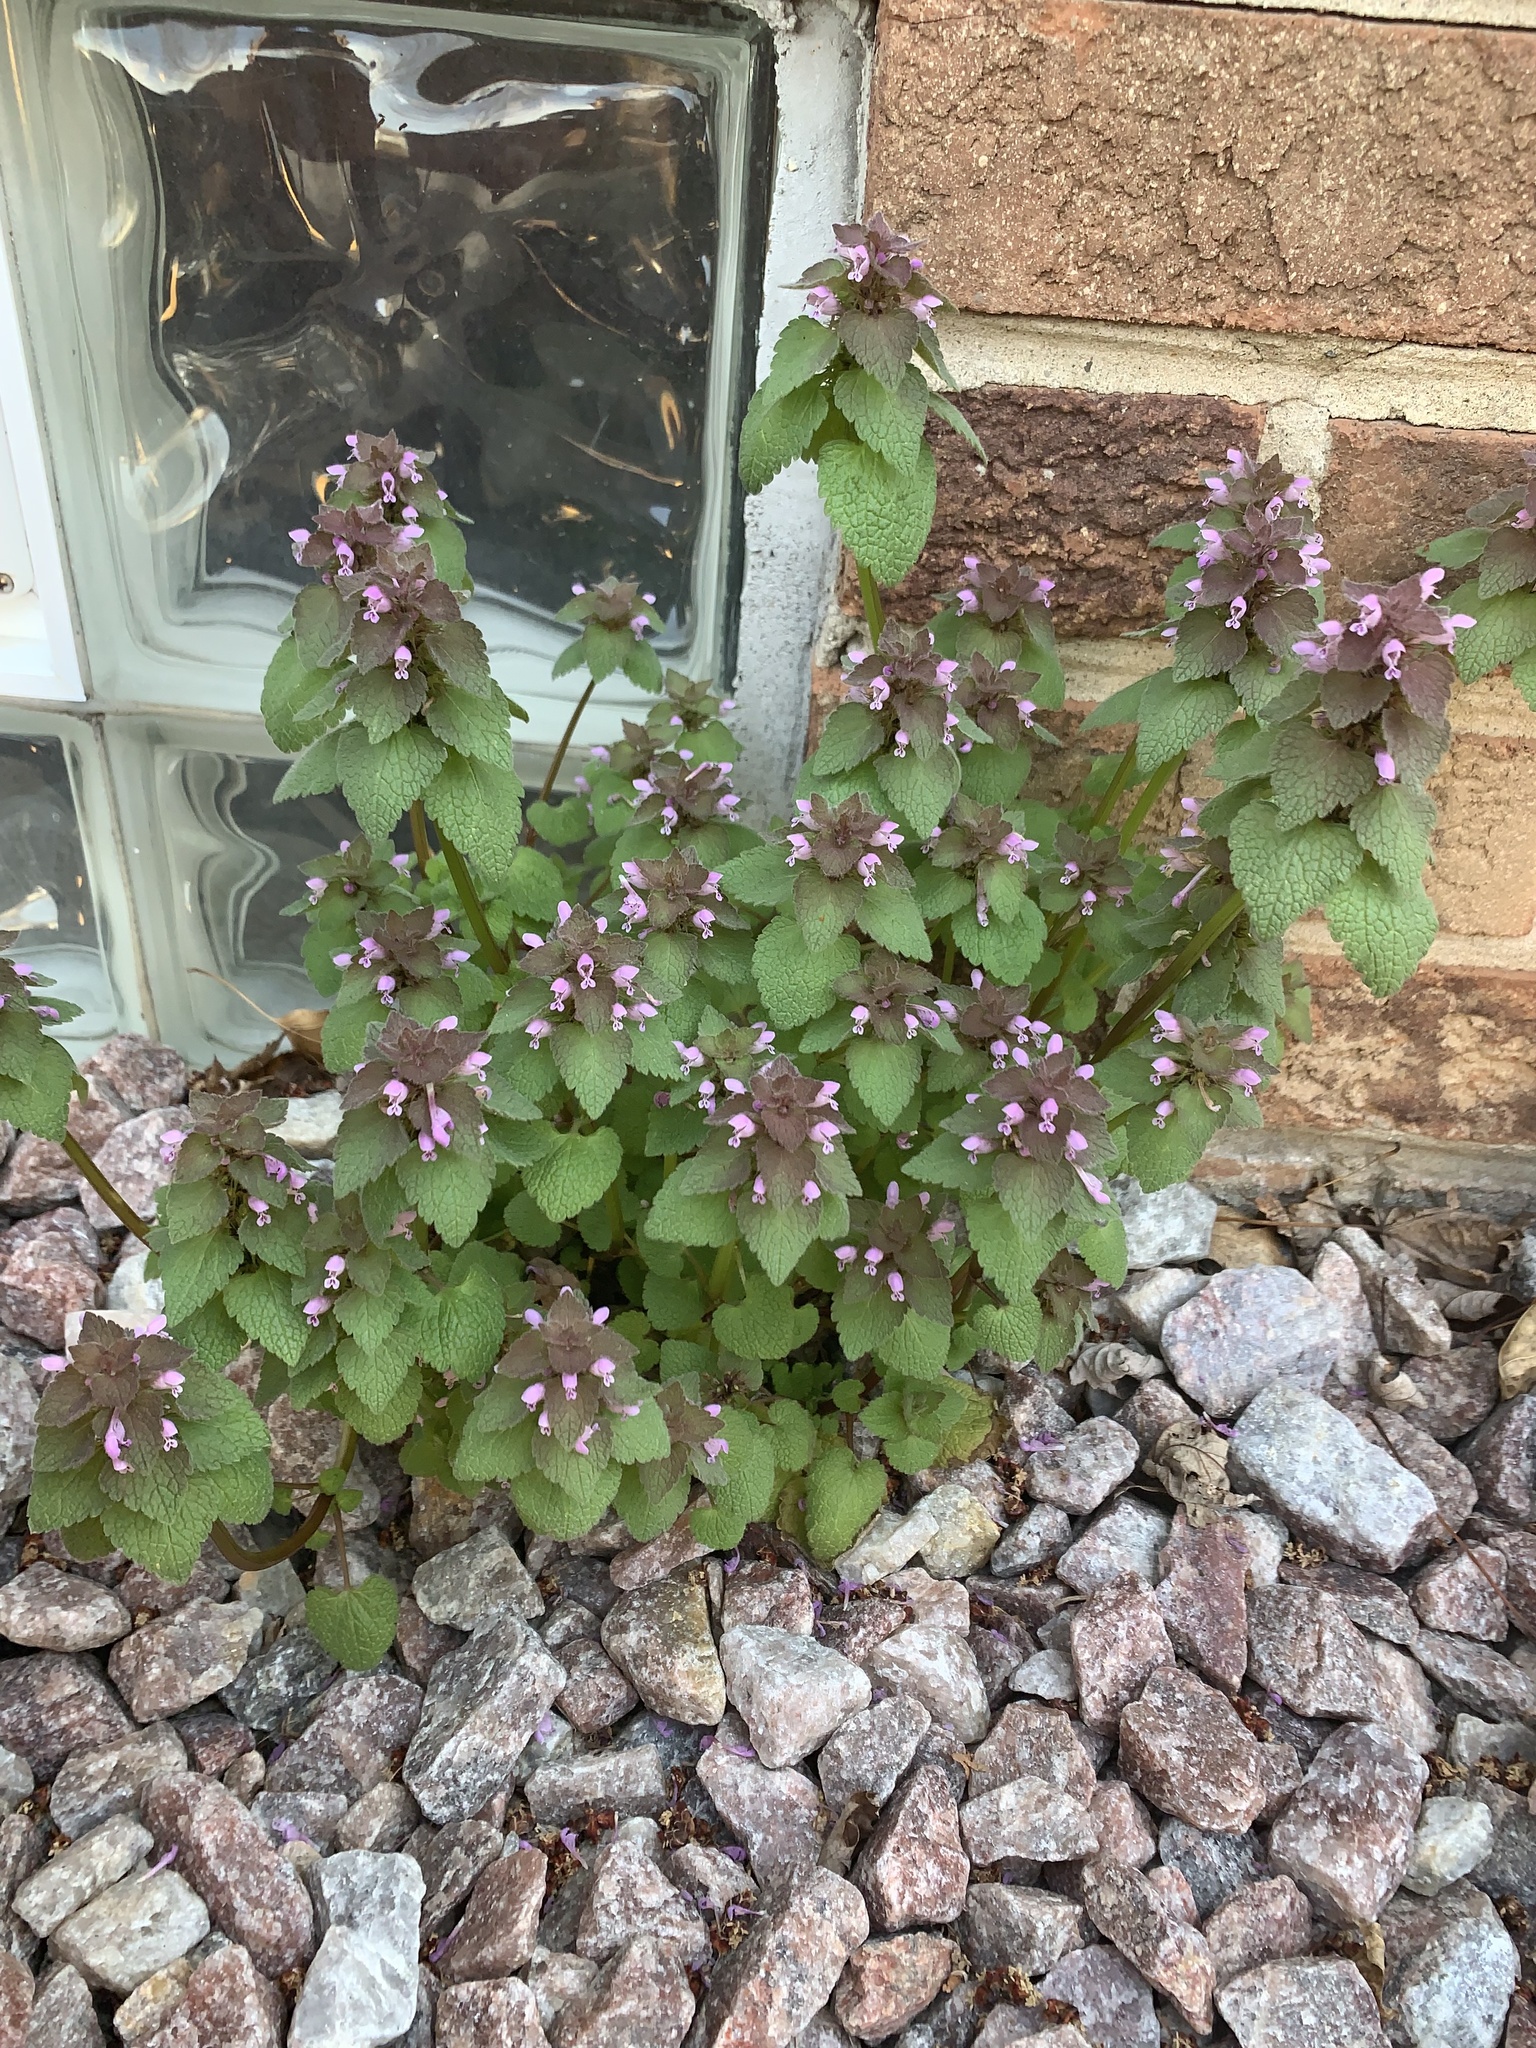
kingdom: Plantae
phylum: Tracheophyta
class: Magnoliopsida
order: Lamiales
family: Lamiaceae
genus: Lamium
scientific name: Lamium purpureum
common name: Red dead-nettle
